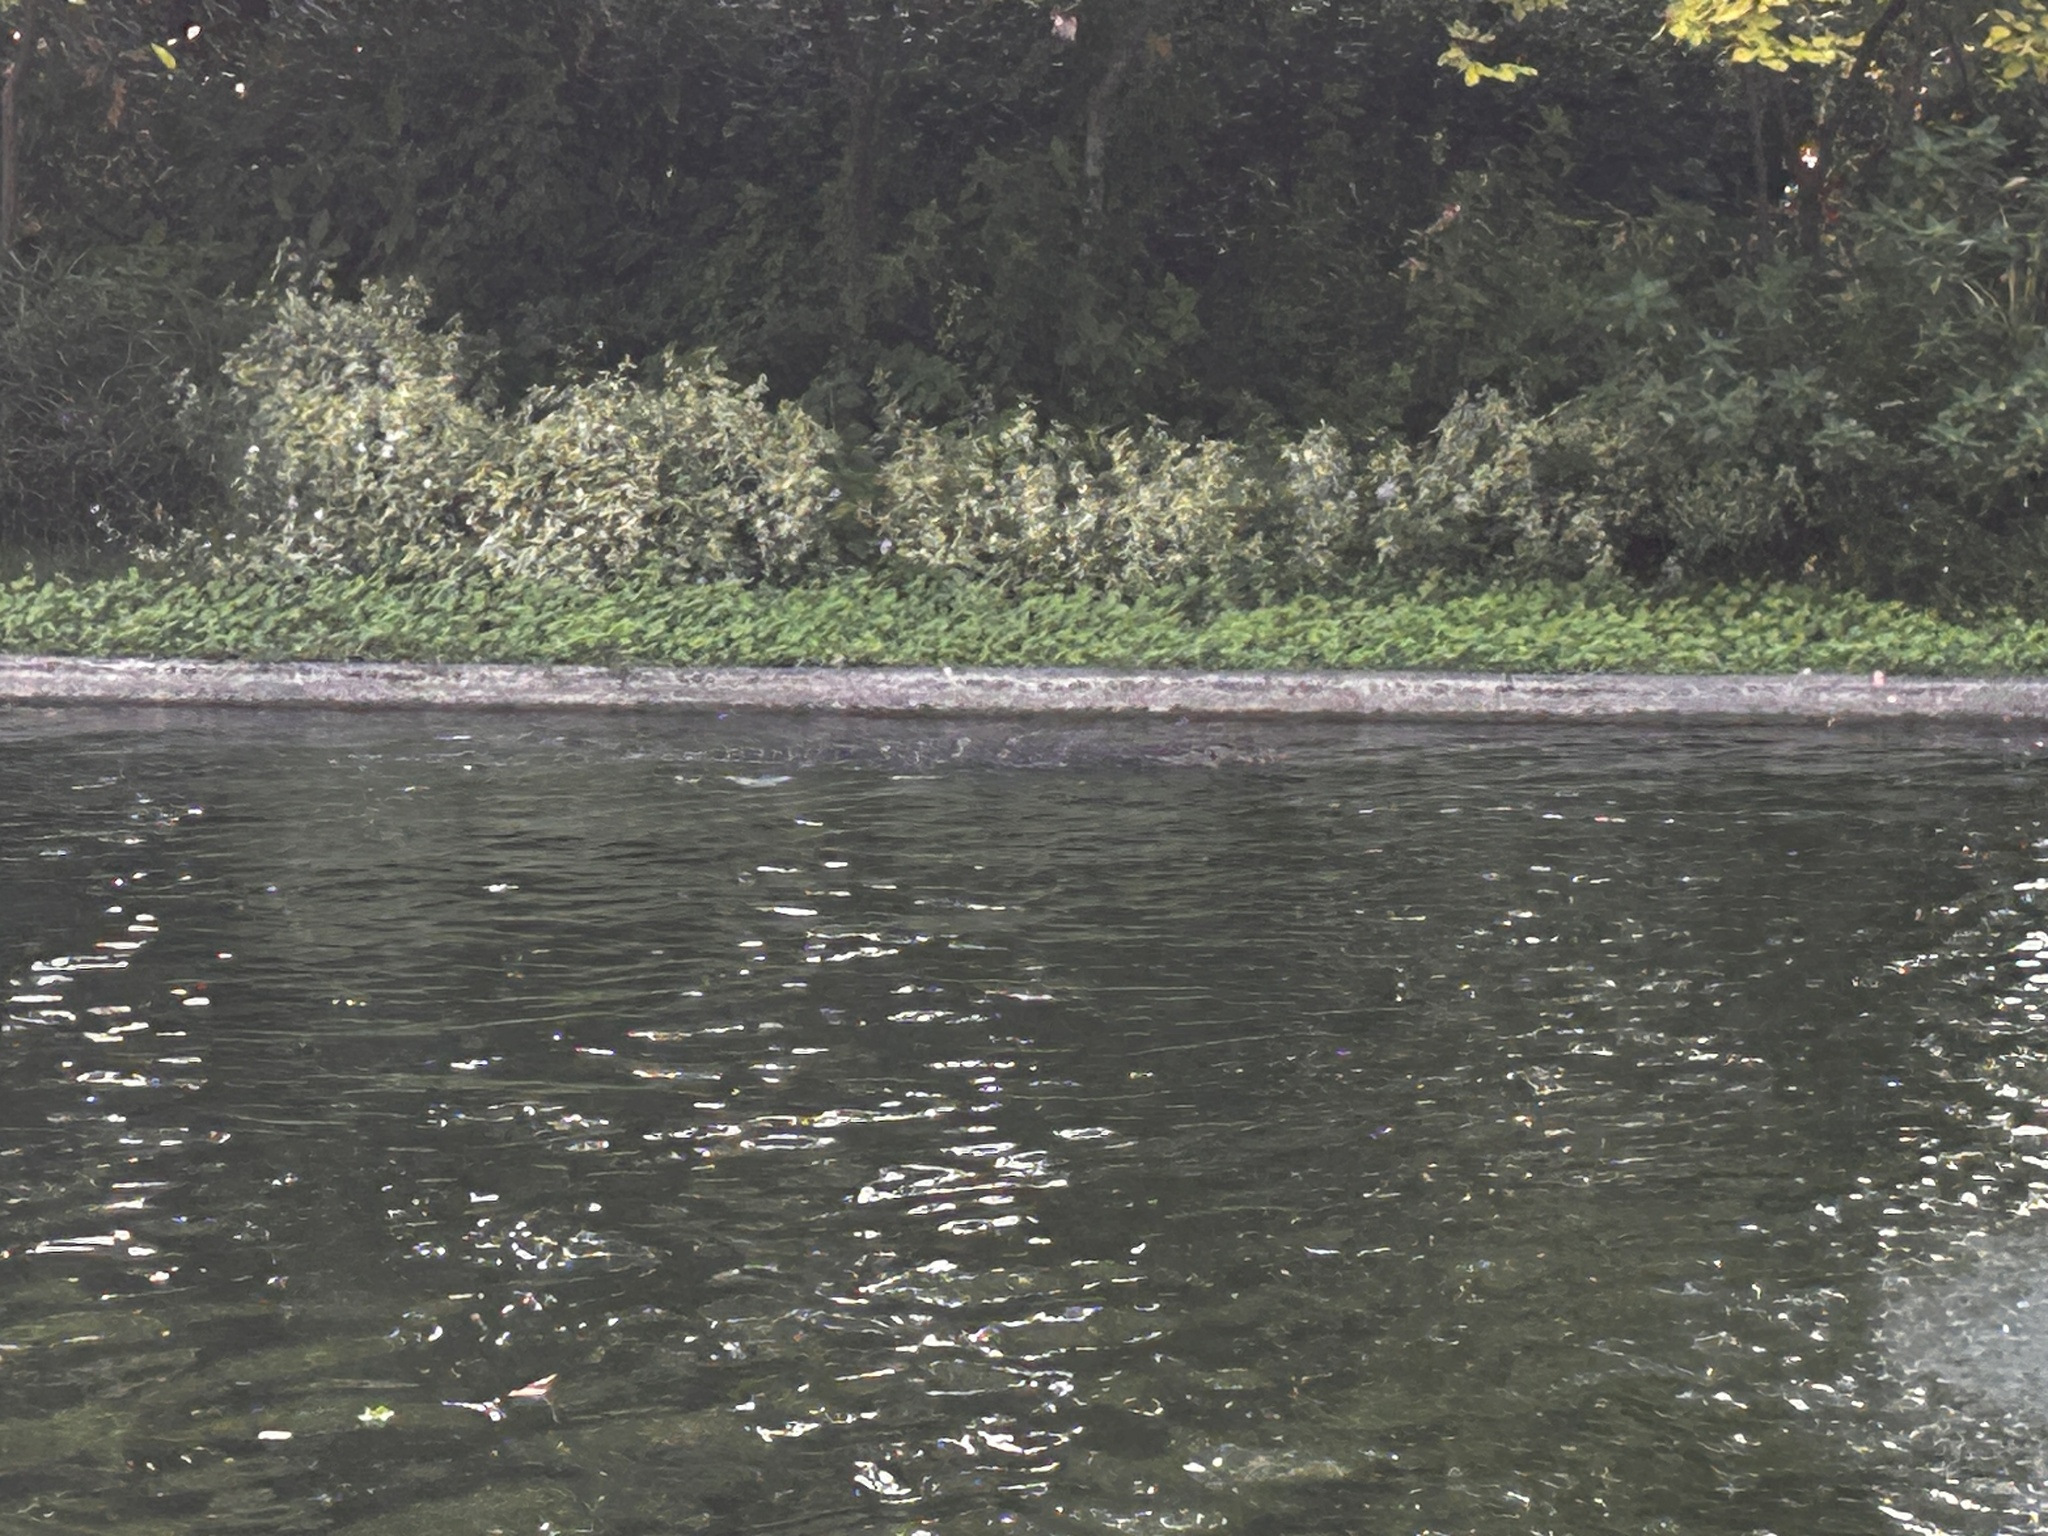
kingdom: Animalia
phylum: Chordata
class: Squamata
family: Varanidae
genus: Varanus
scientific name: Varanus salvator
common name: Common water monitor
